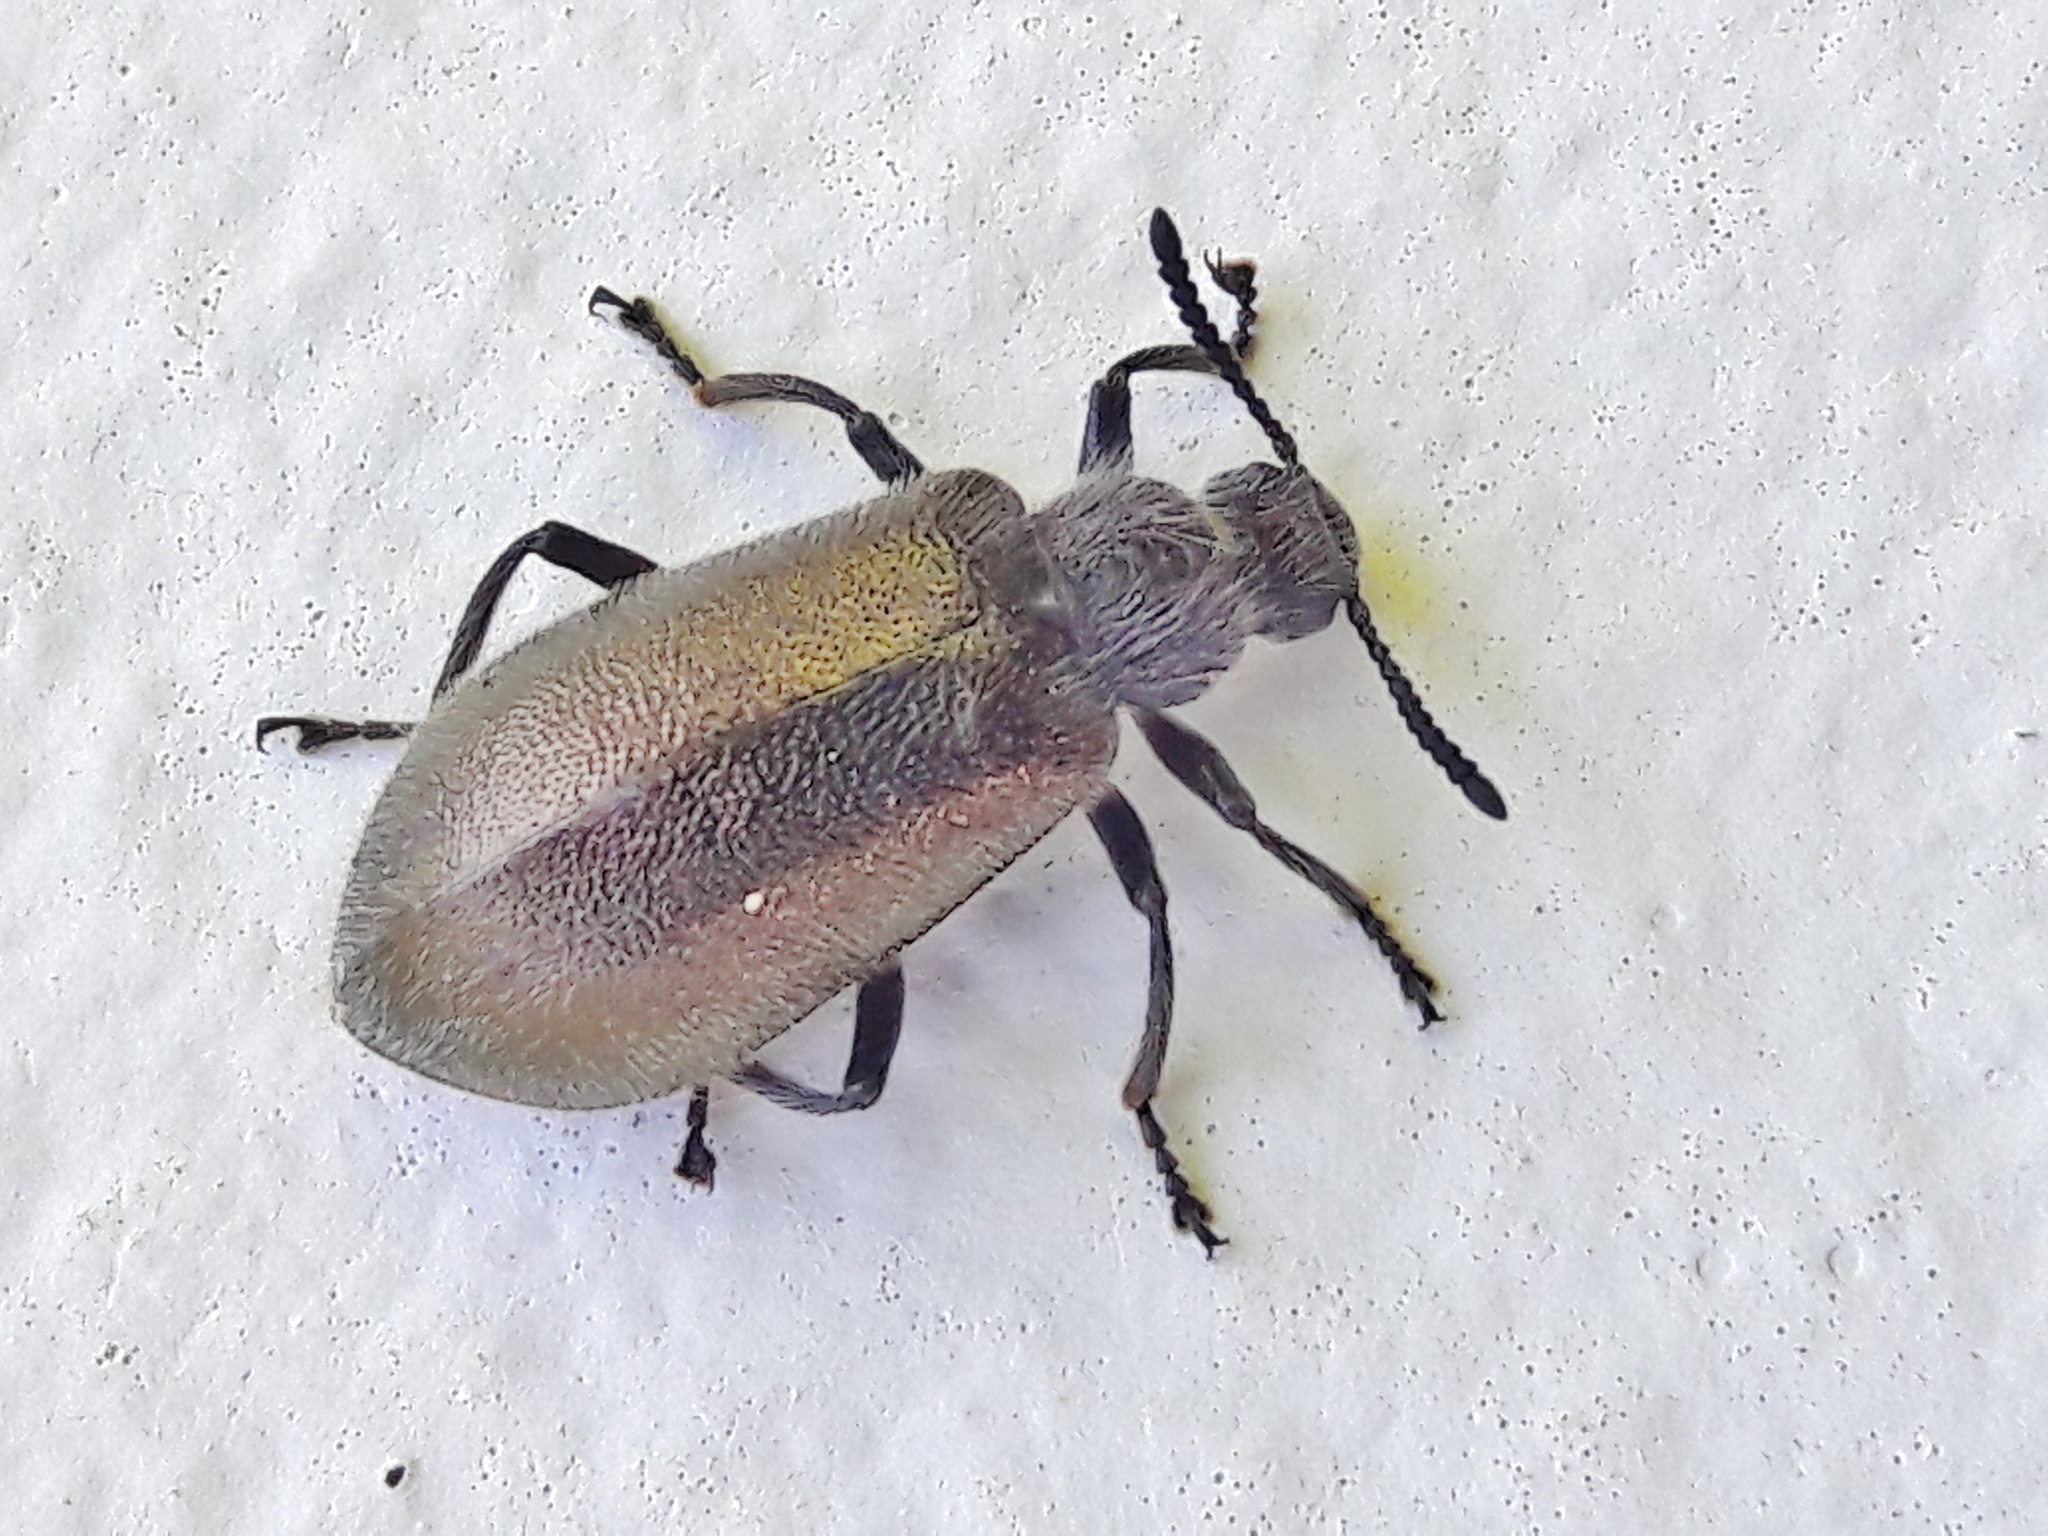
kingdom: Animalia
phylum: Arthropoda
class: Insecta
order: Coleoptera
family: Tenebrionidae
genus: Lagria
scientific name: Lagria villosa
